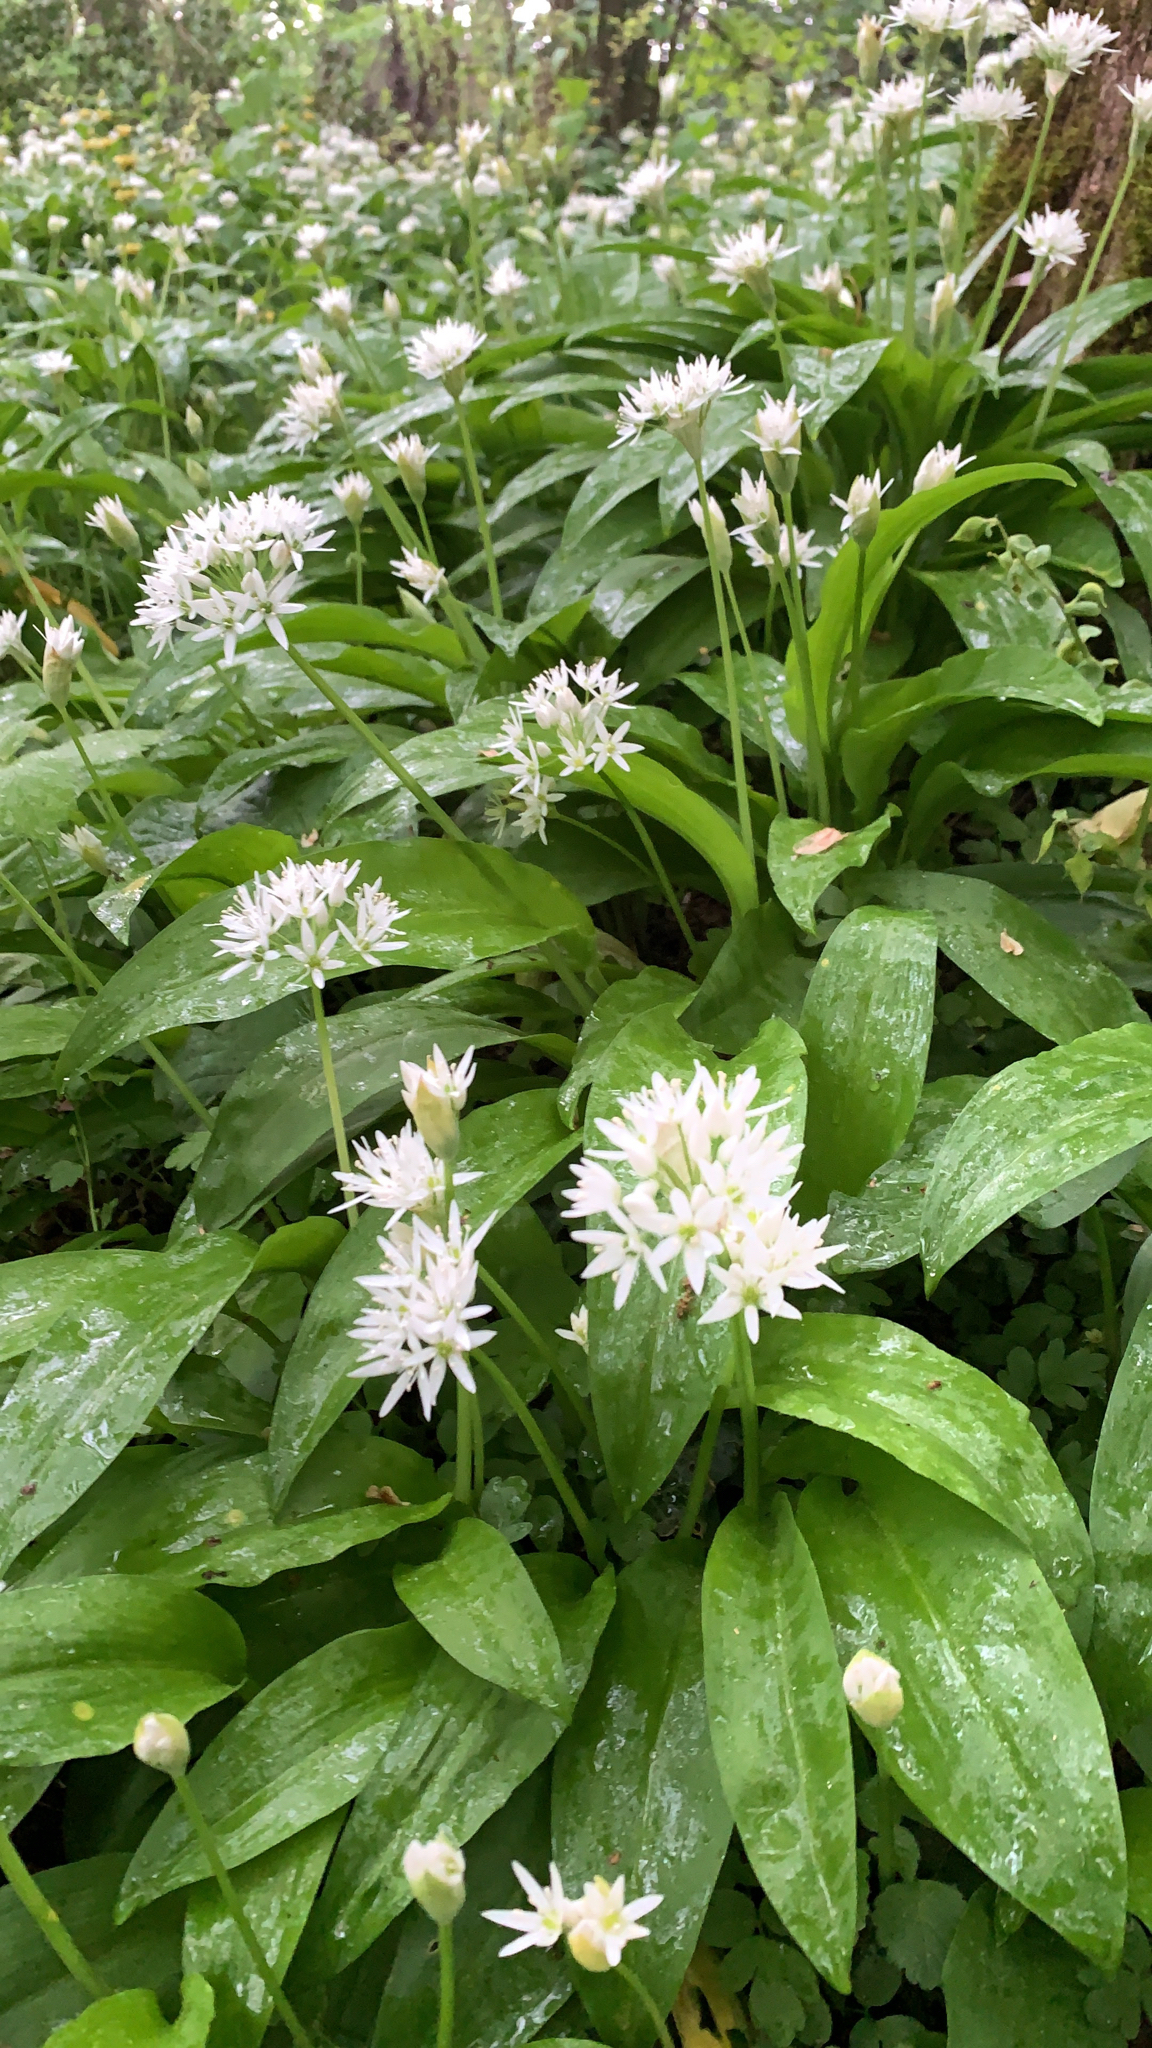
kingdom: Plantae
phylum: Tracheophyta
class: Liliopsida
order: Asparagales
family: Amaryllidaceae
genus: Allium
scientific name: Allium ursinum
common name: Ramsons
